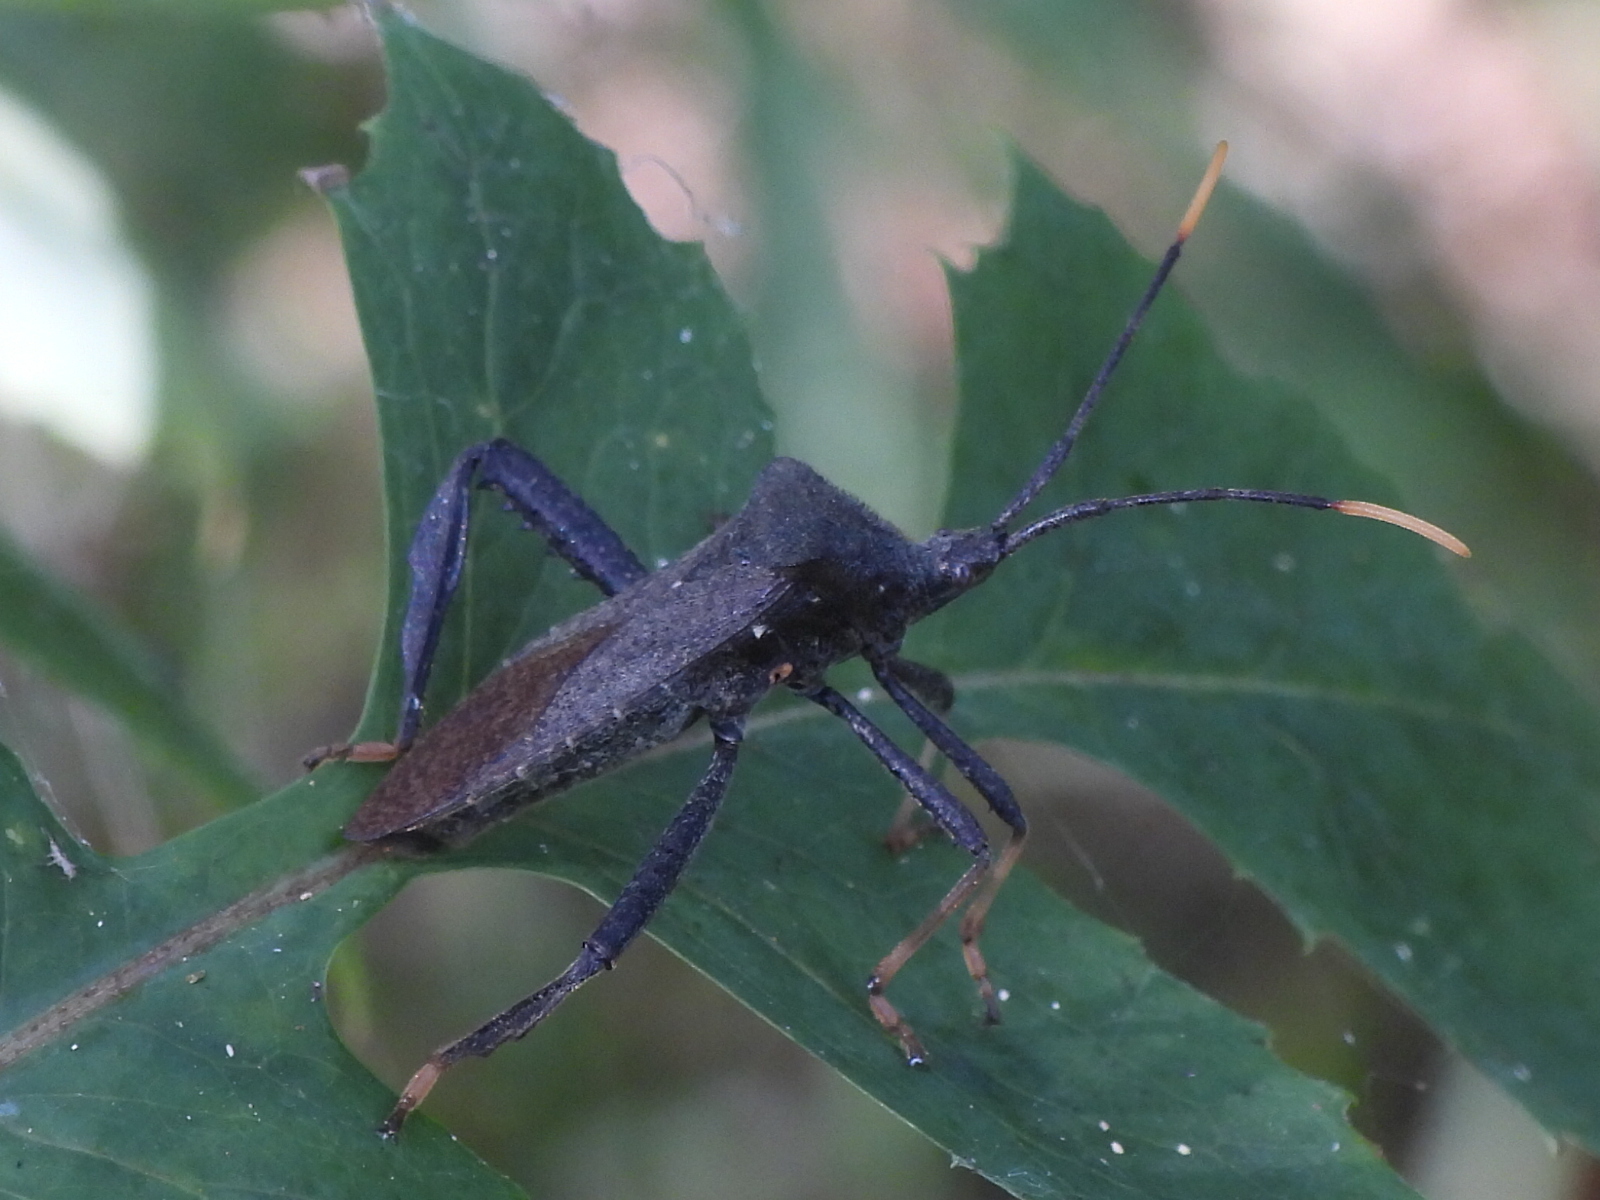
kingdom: Animalia
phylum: Arthropoda
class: Insecta
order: Hemiptera
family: Coreidae
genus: Acanthocephala
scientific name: Acanthocephala terminalis
